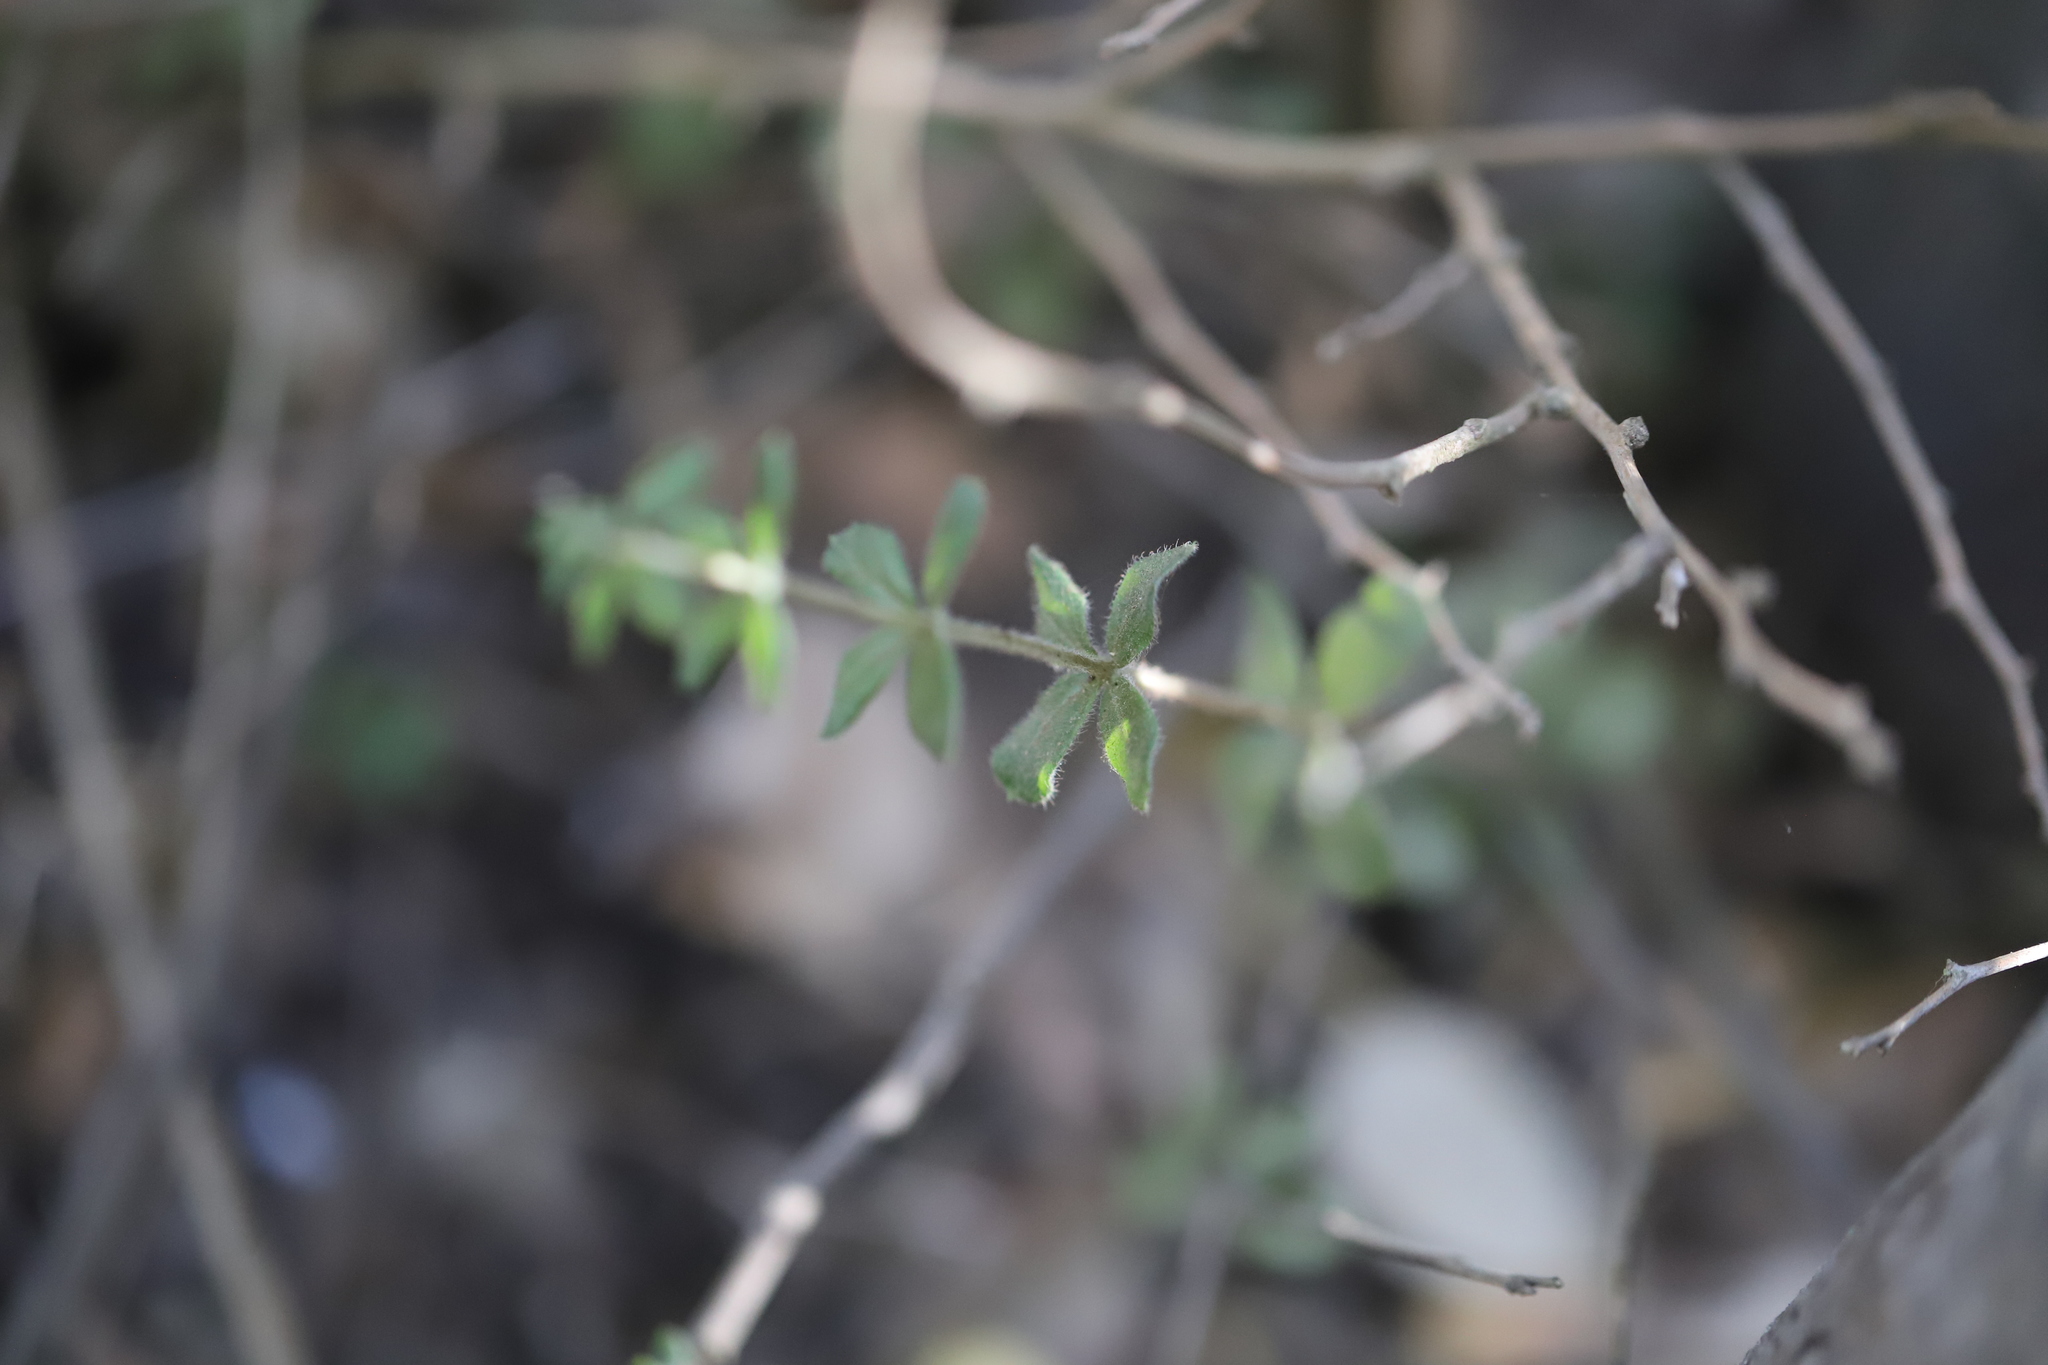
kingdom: Plantae
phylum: Tracheophyta
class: Magnoliopsida
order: Gentianales
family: Rubiaceae
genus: Galium
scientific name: Galium hypocarpium
